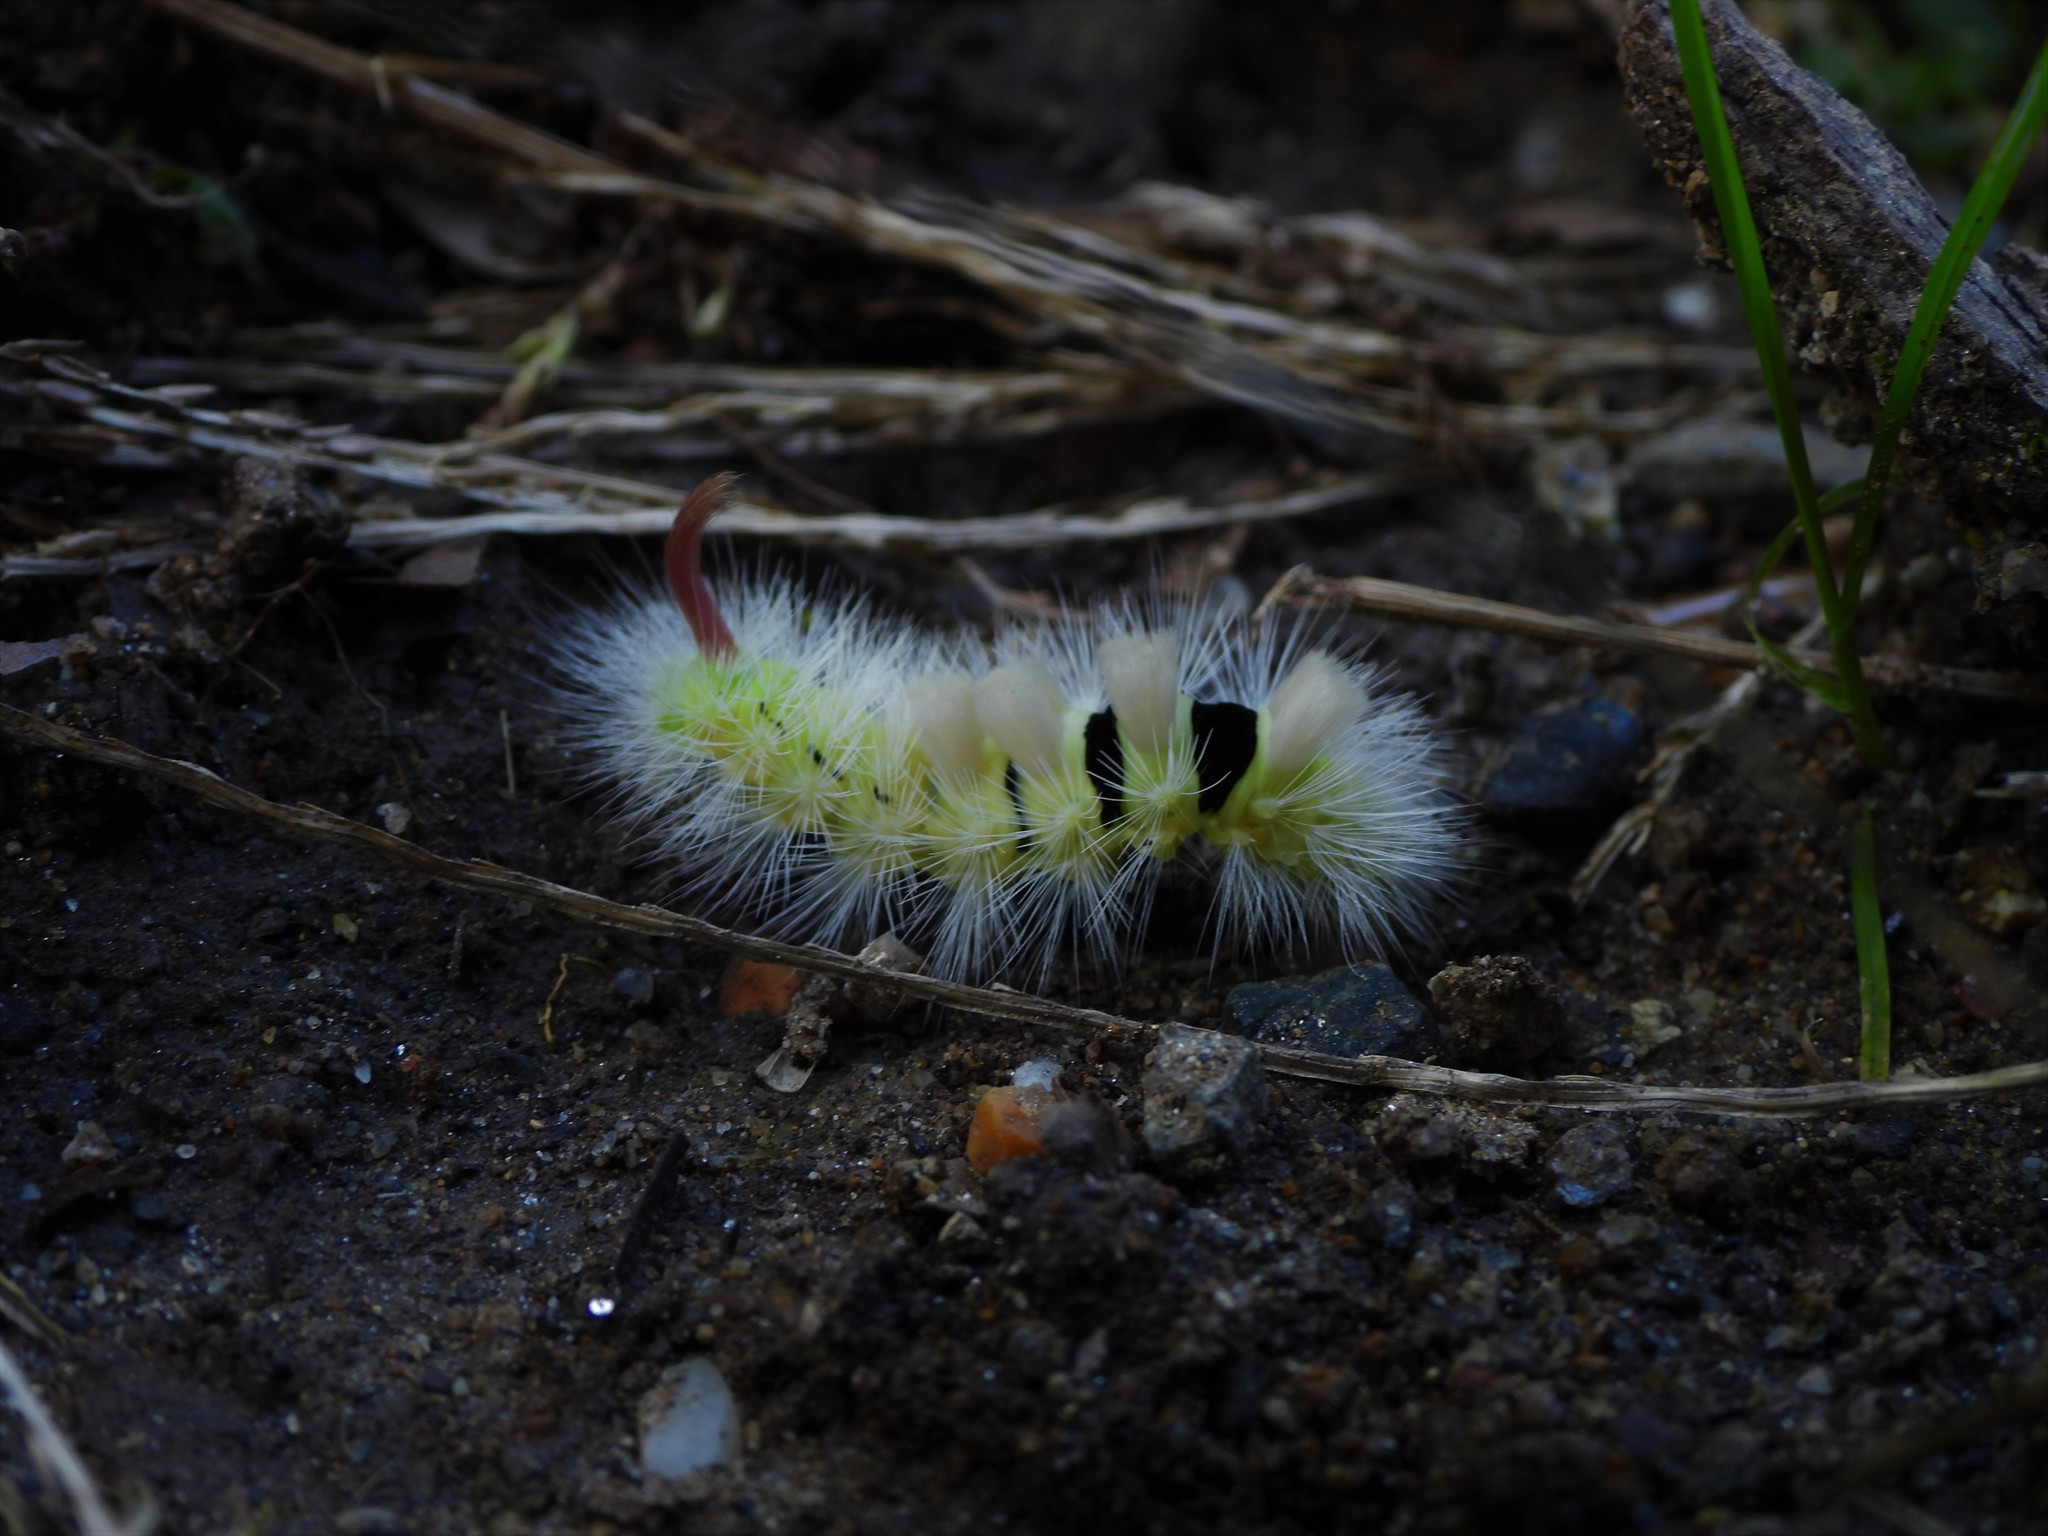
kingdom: Animalia
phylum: Arthropoda
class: Insecta
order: Lepidoptera
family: Erebidae
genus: Calliteara
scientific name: Calliteara pudibunda
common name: Pale tussock
